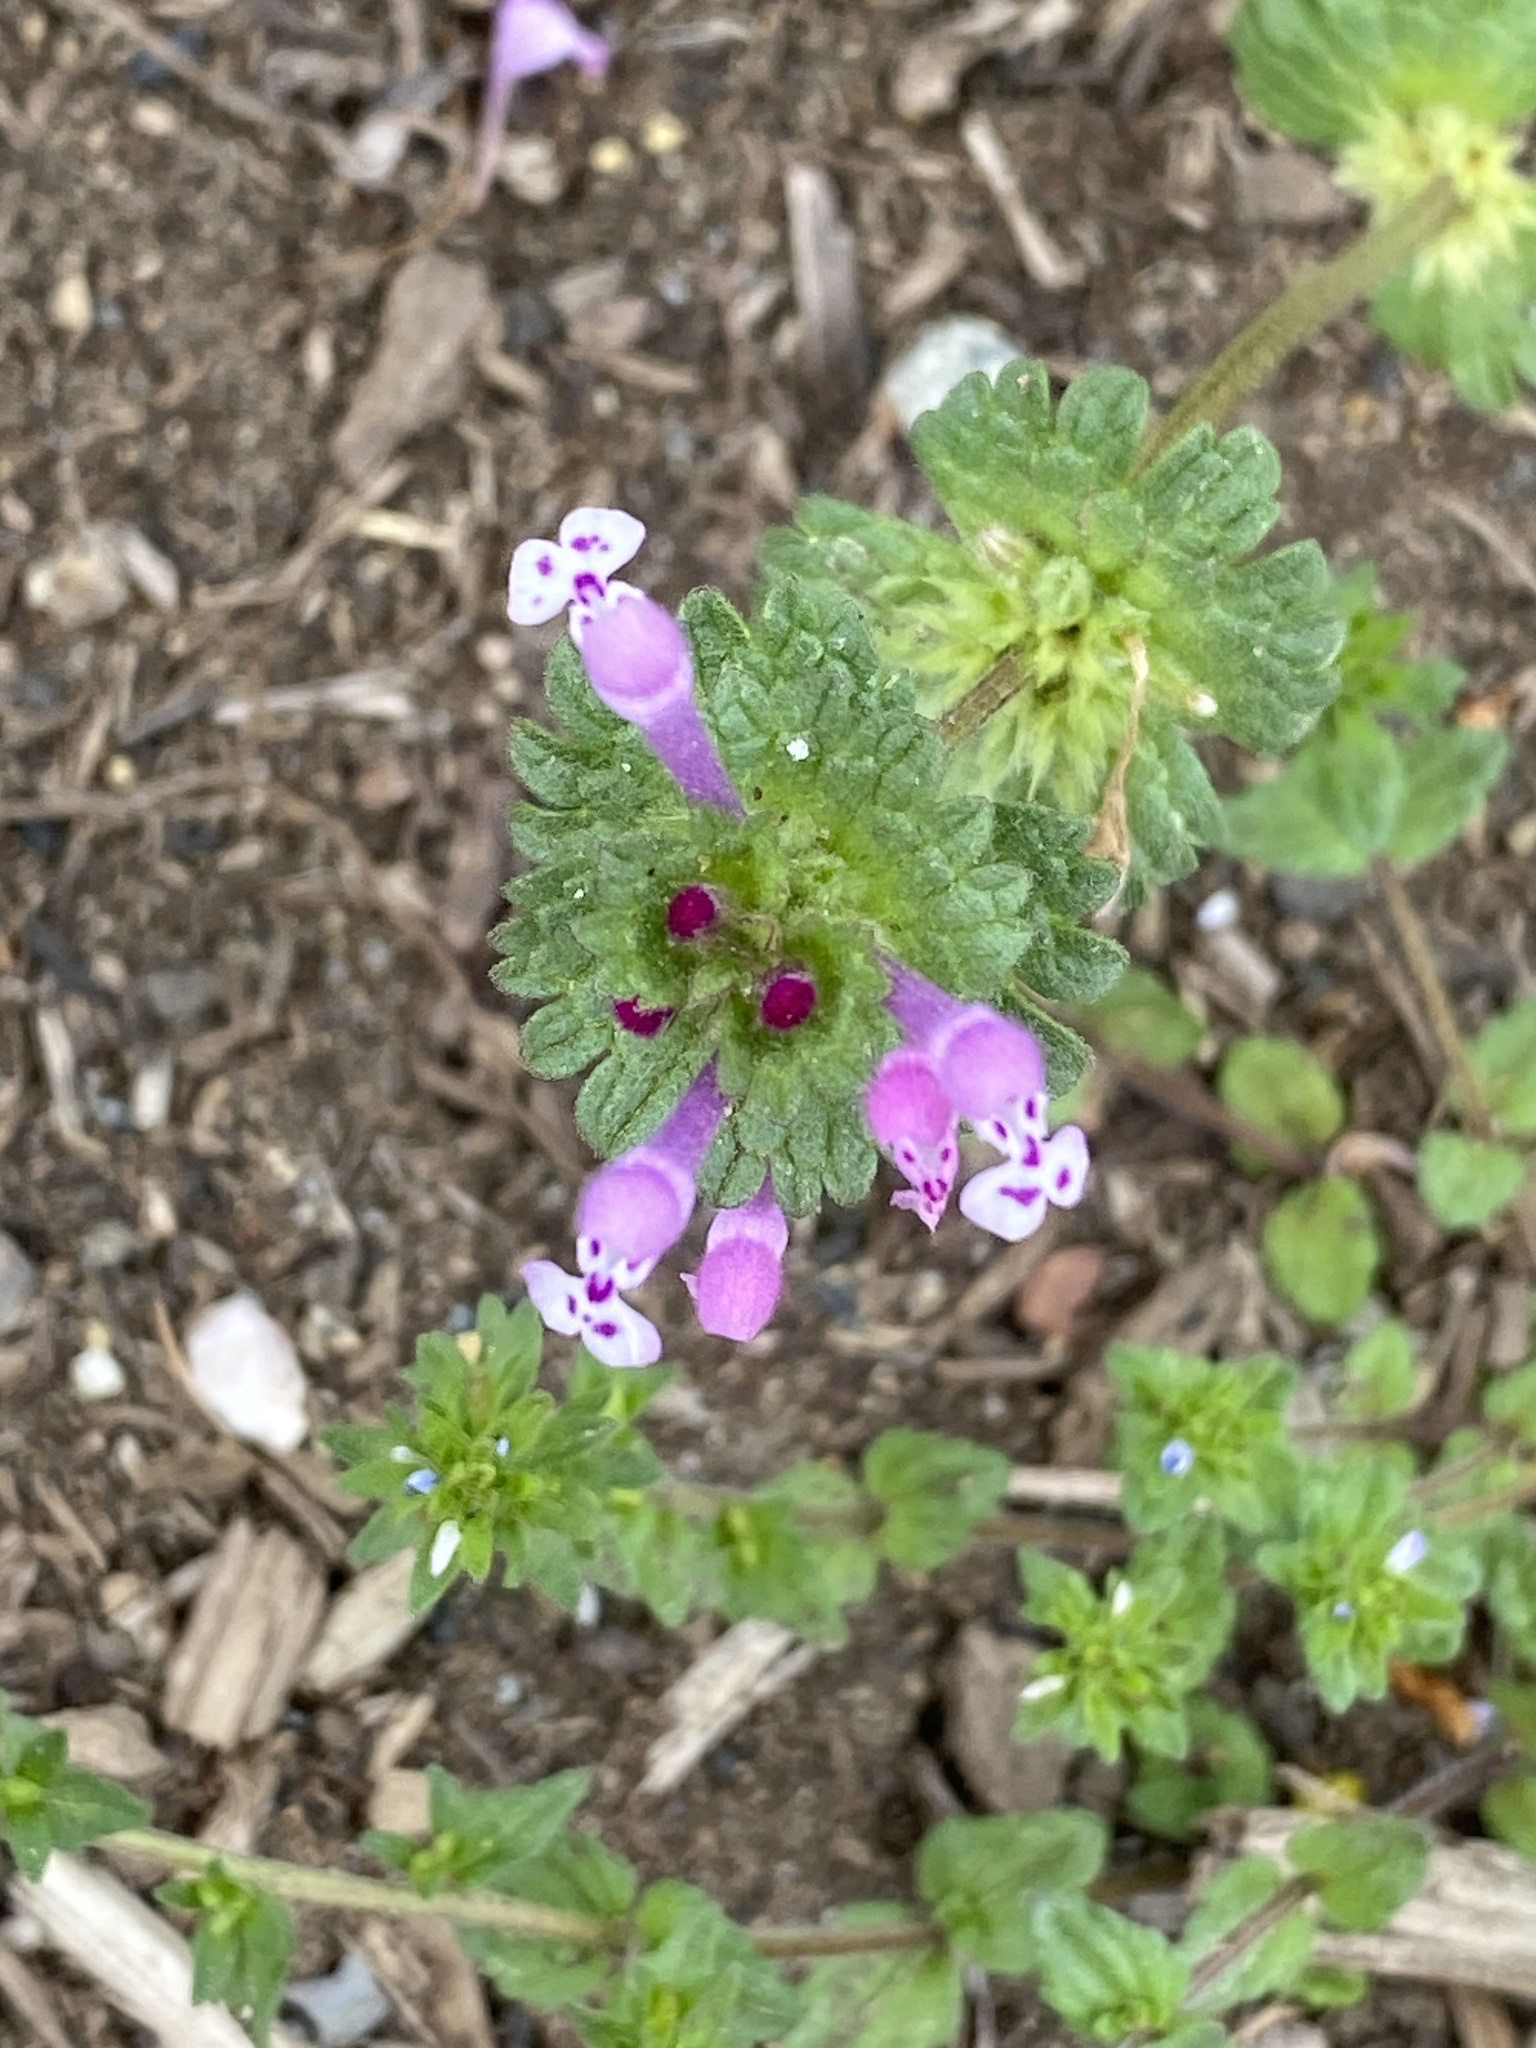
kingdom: Plantae
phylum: Tracheophyta
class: Magnoliopsida
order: Lamiales
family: Lamiaceae
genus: Lamium
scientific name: Lamium amplexicaule
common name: Henbit dead-nettle
